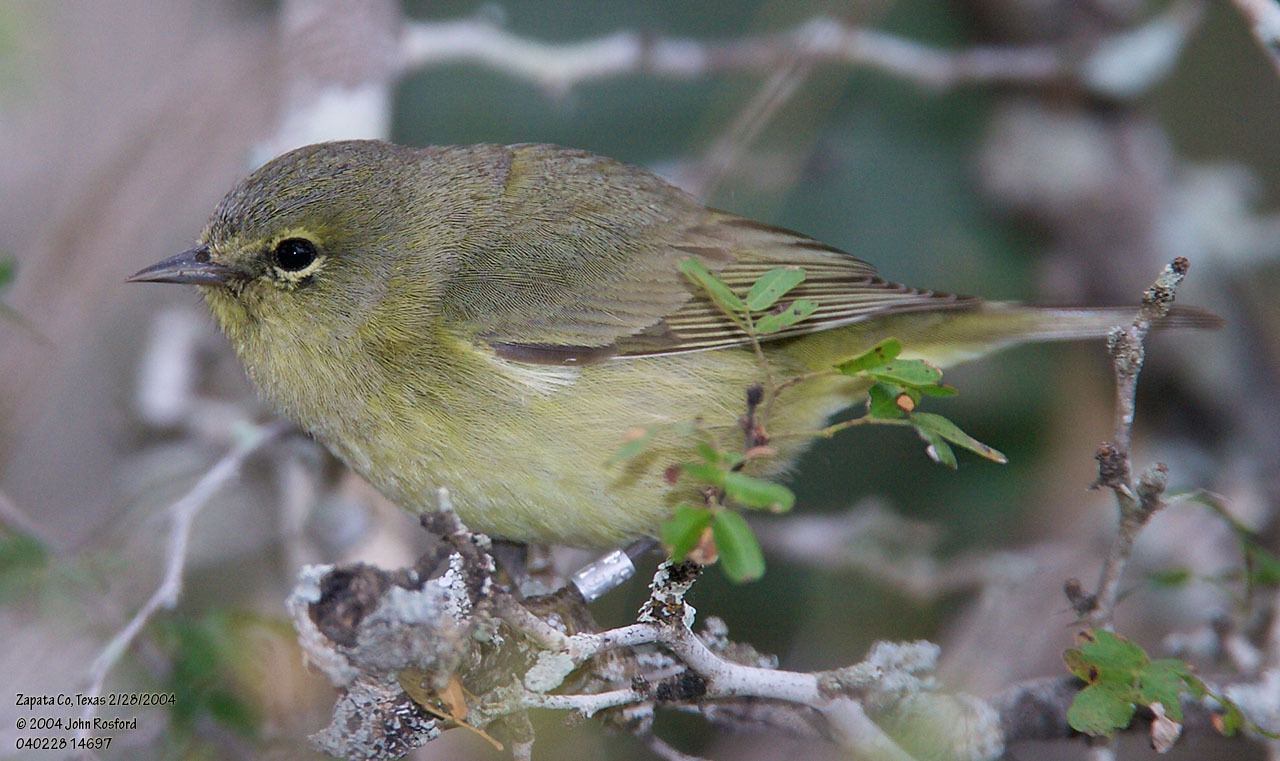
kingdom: Animalia
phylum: Chordata
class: Aves
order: Passeriformes
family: Parulidae
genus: Leiothlypis
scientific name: Leiothlypis celata
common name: Orange-crowned warbler
